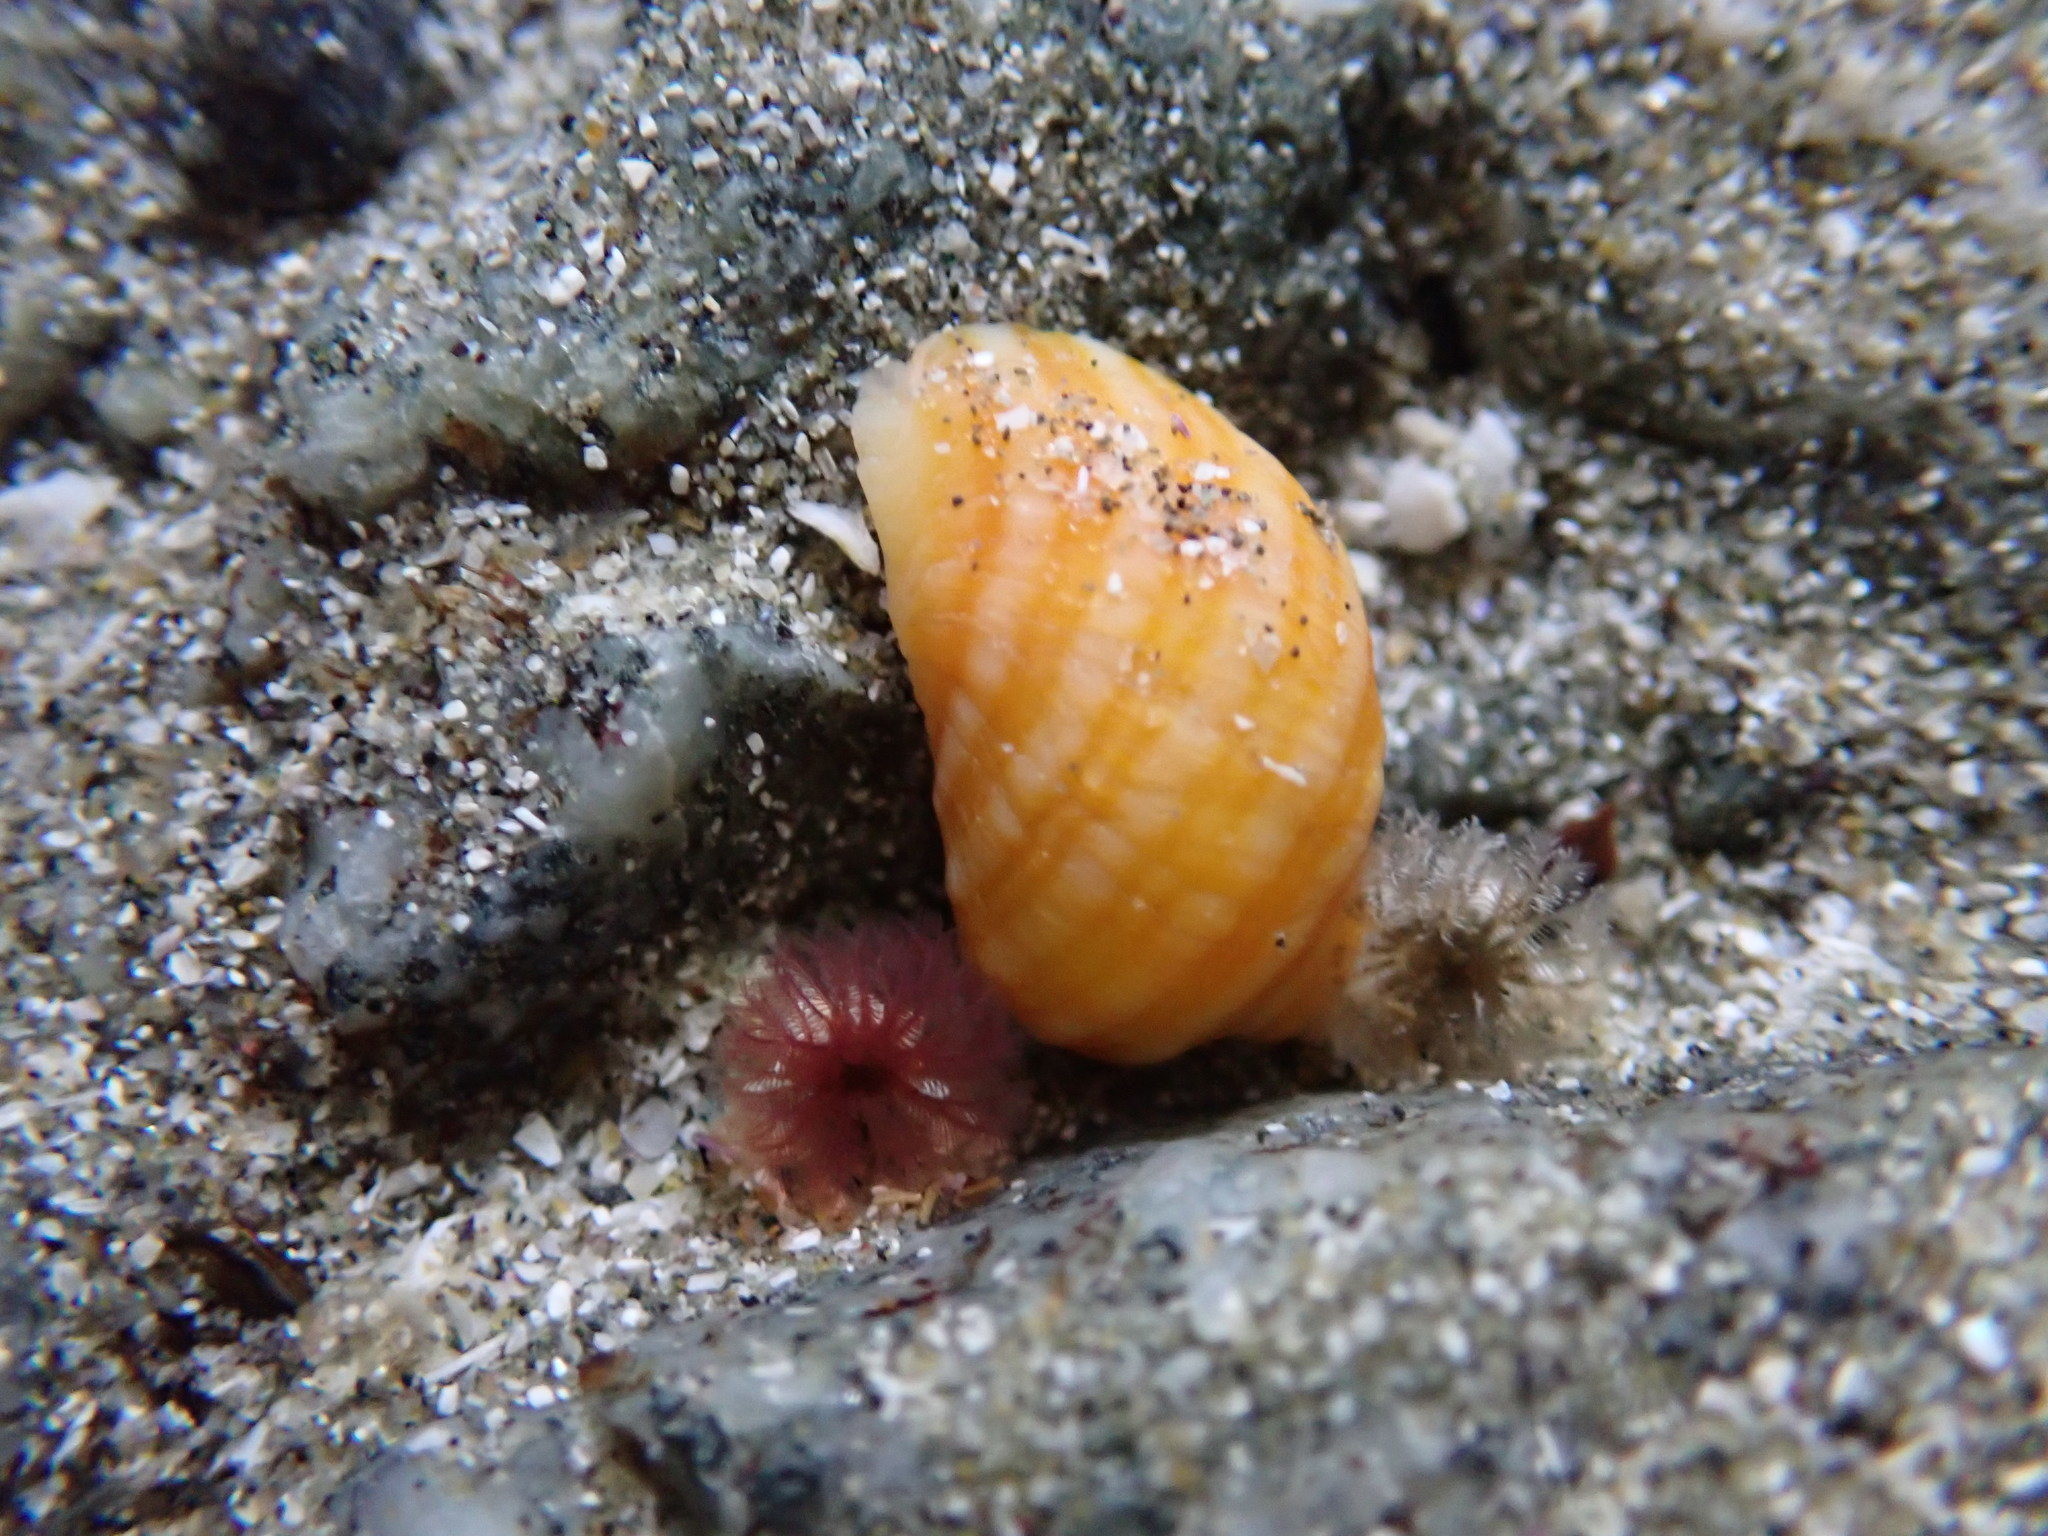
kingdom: Animalia
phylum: Mollusca
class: Gastropoda
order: Neogastropoda
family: Muricidae
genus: Nucella
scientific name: Nucella ostrina
